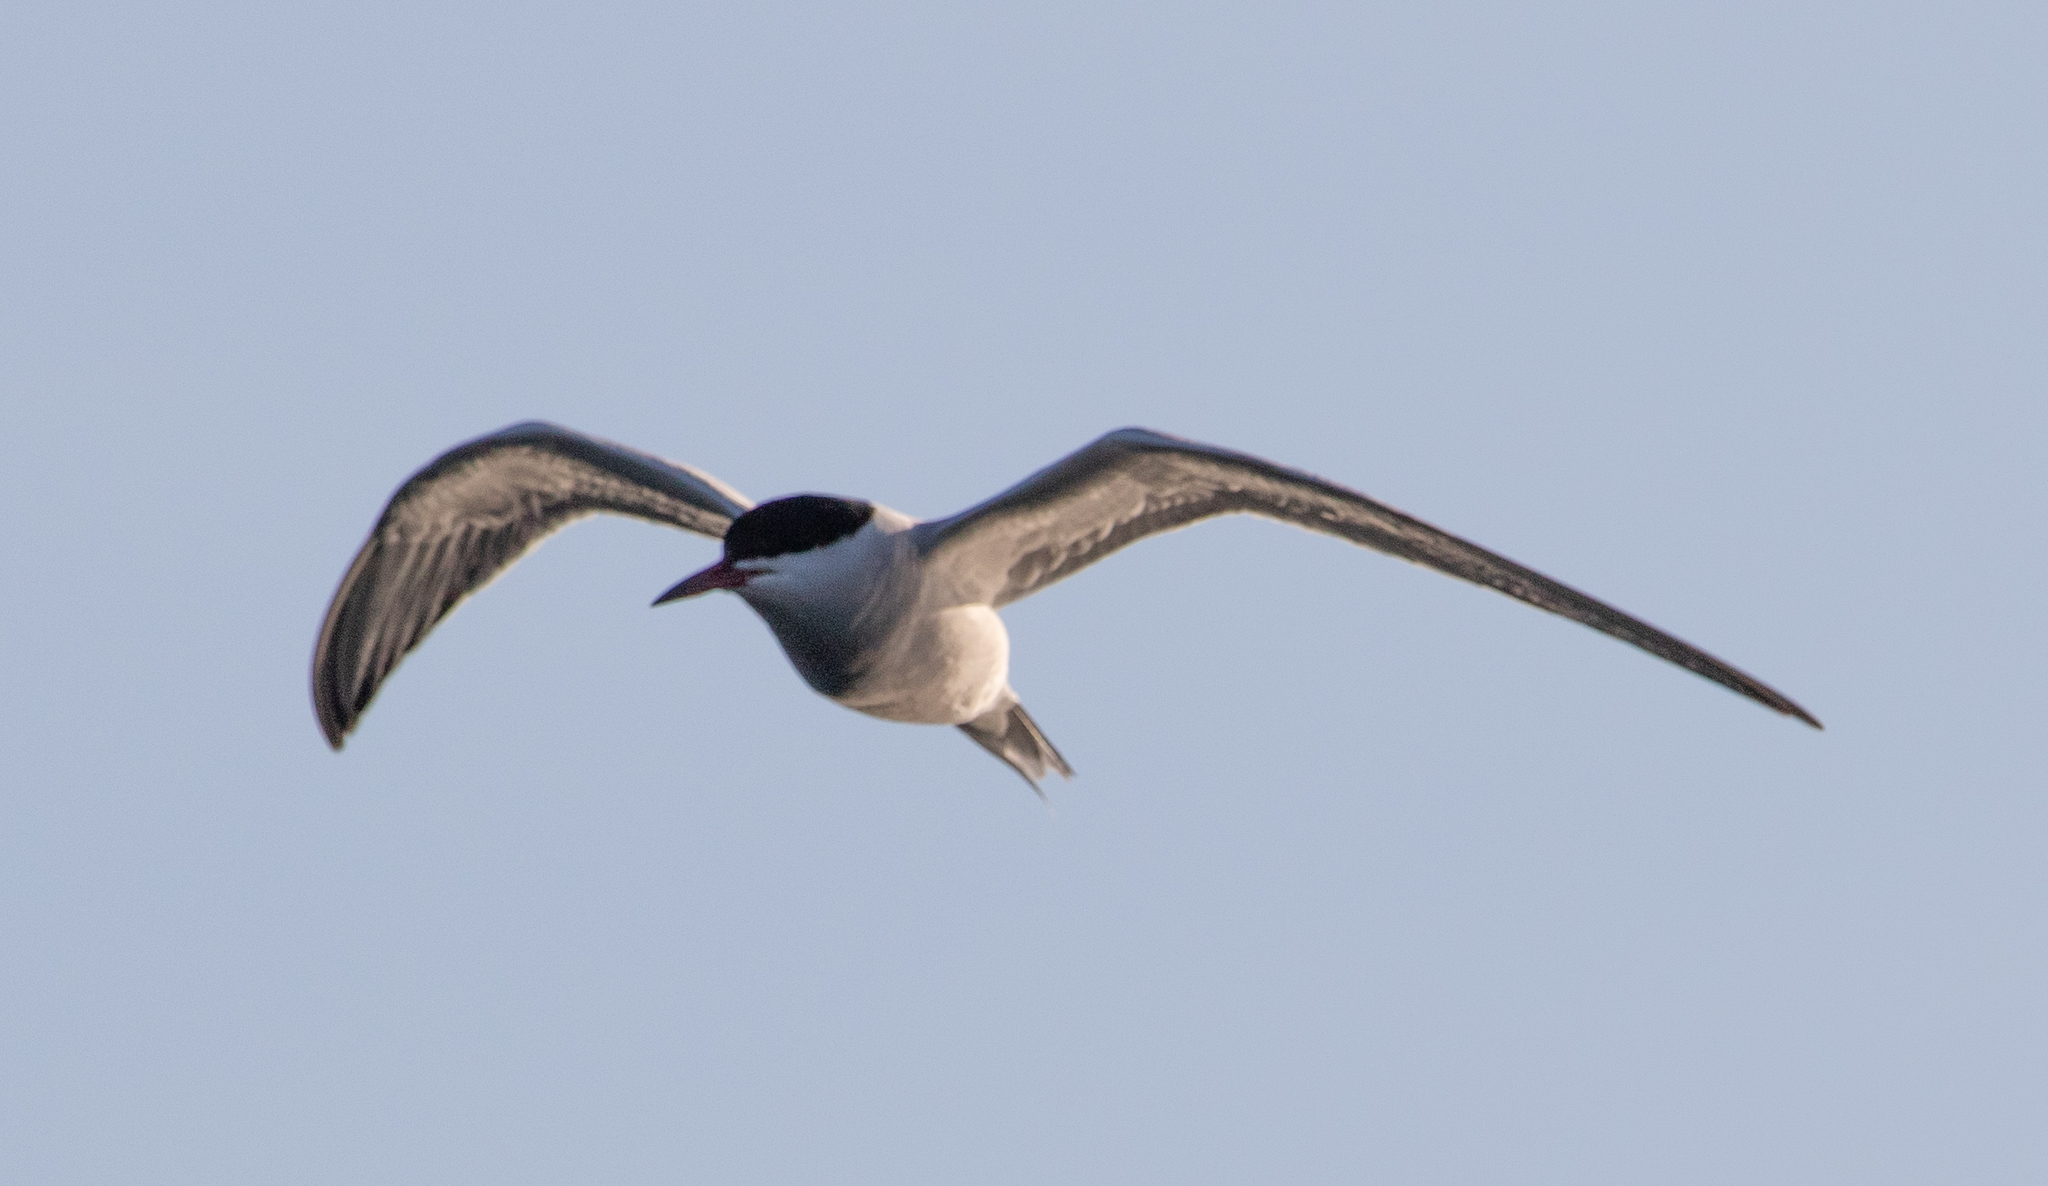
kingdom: Animalia
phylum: Chordata
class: Aves
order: Charadriiformes
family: Laridae
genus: Sterna
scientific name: Sterna hirundo
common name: Common tern
